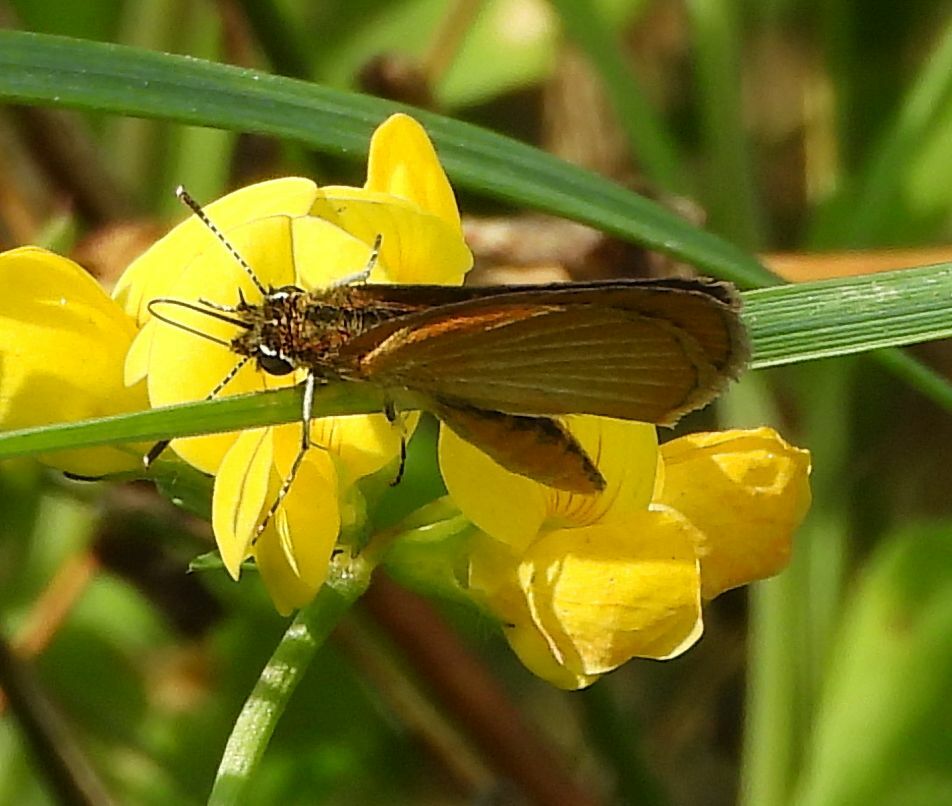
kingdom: Animalia
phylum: Arthropoda
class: Insecta
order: Lepidoptera
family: Hesperiidae
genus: Ancyloxypha
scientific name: Ancyloxypha numitor
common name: Least skipper
